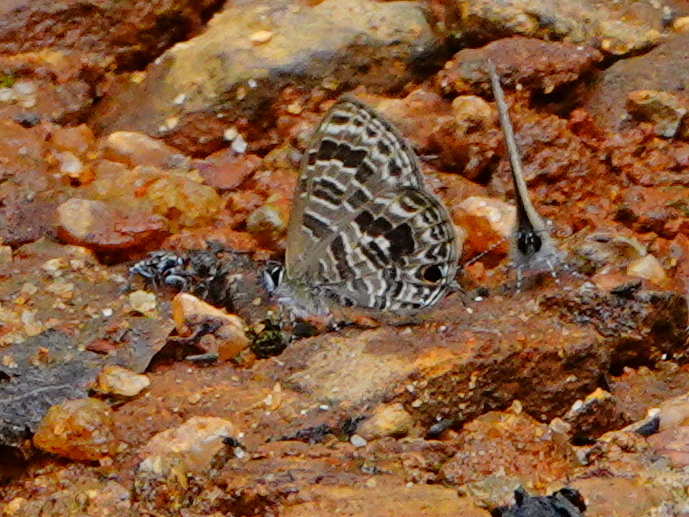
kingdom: Animalia
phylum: Arthropoda
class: Insecta
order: Lepidoptera
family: Lycaenidae
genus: Prosotas
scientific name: Prosotas aluta
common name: Barred lineblue
